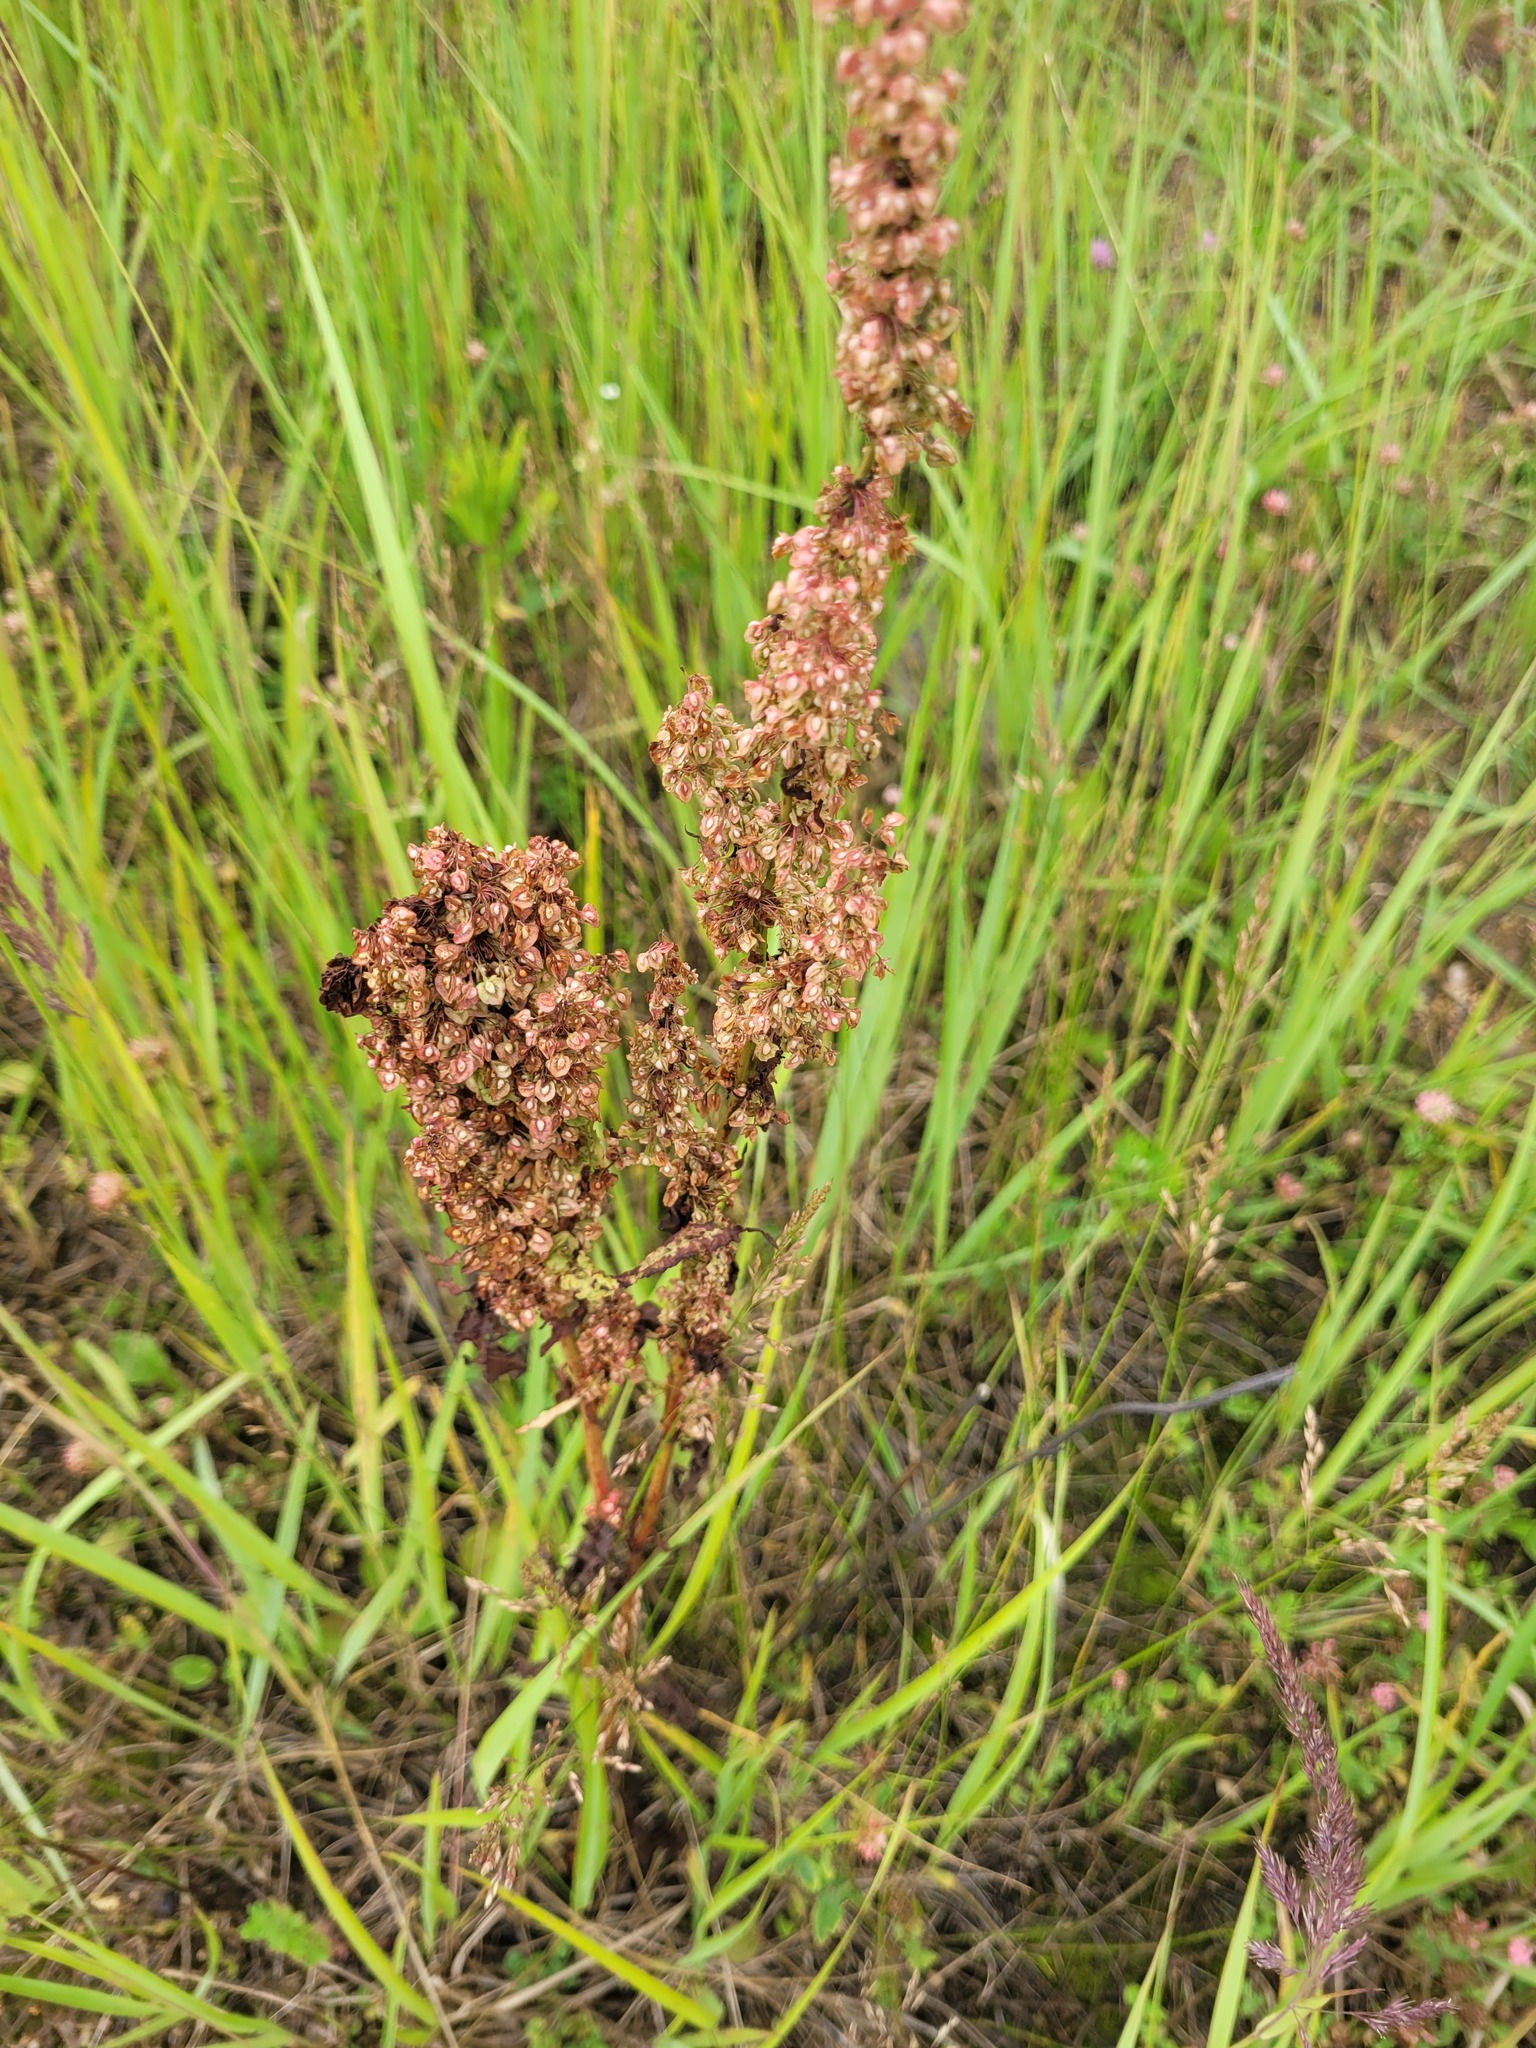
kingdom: Plantae
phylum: Tracheophyta
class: Magnoliopsida
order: Caryophyllales
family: Polygonaceae
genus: Rumex
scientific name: Rumex crispus
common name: Curled dock
